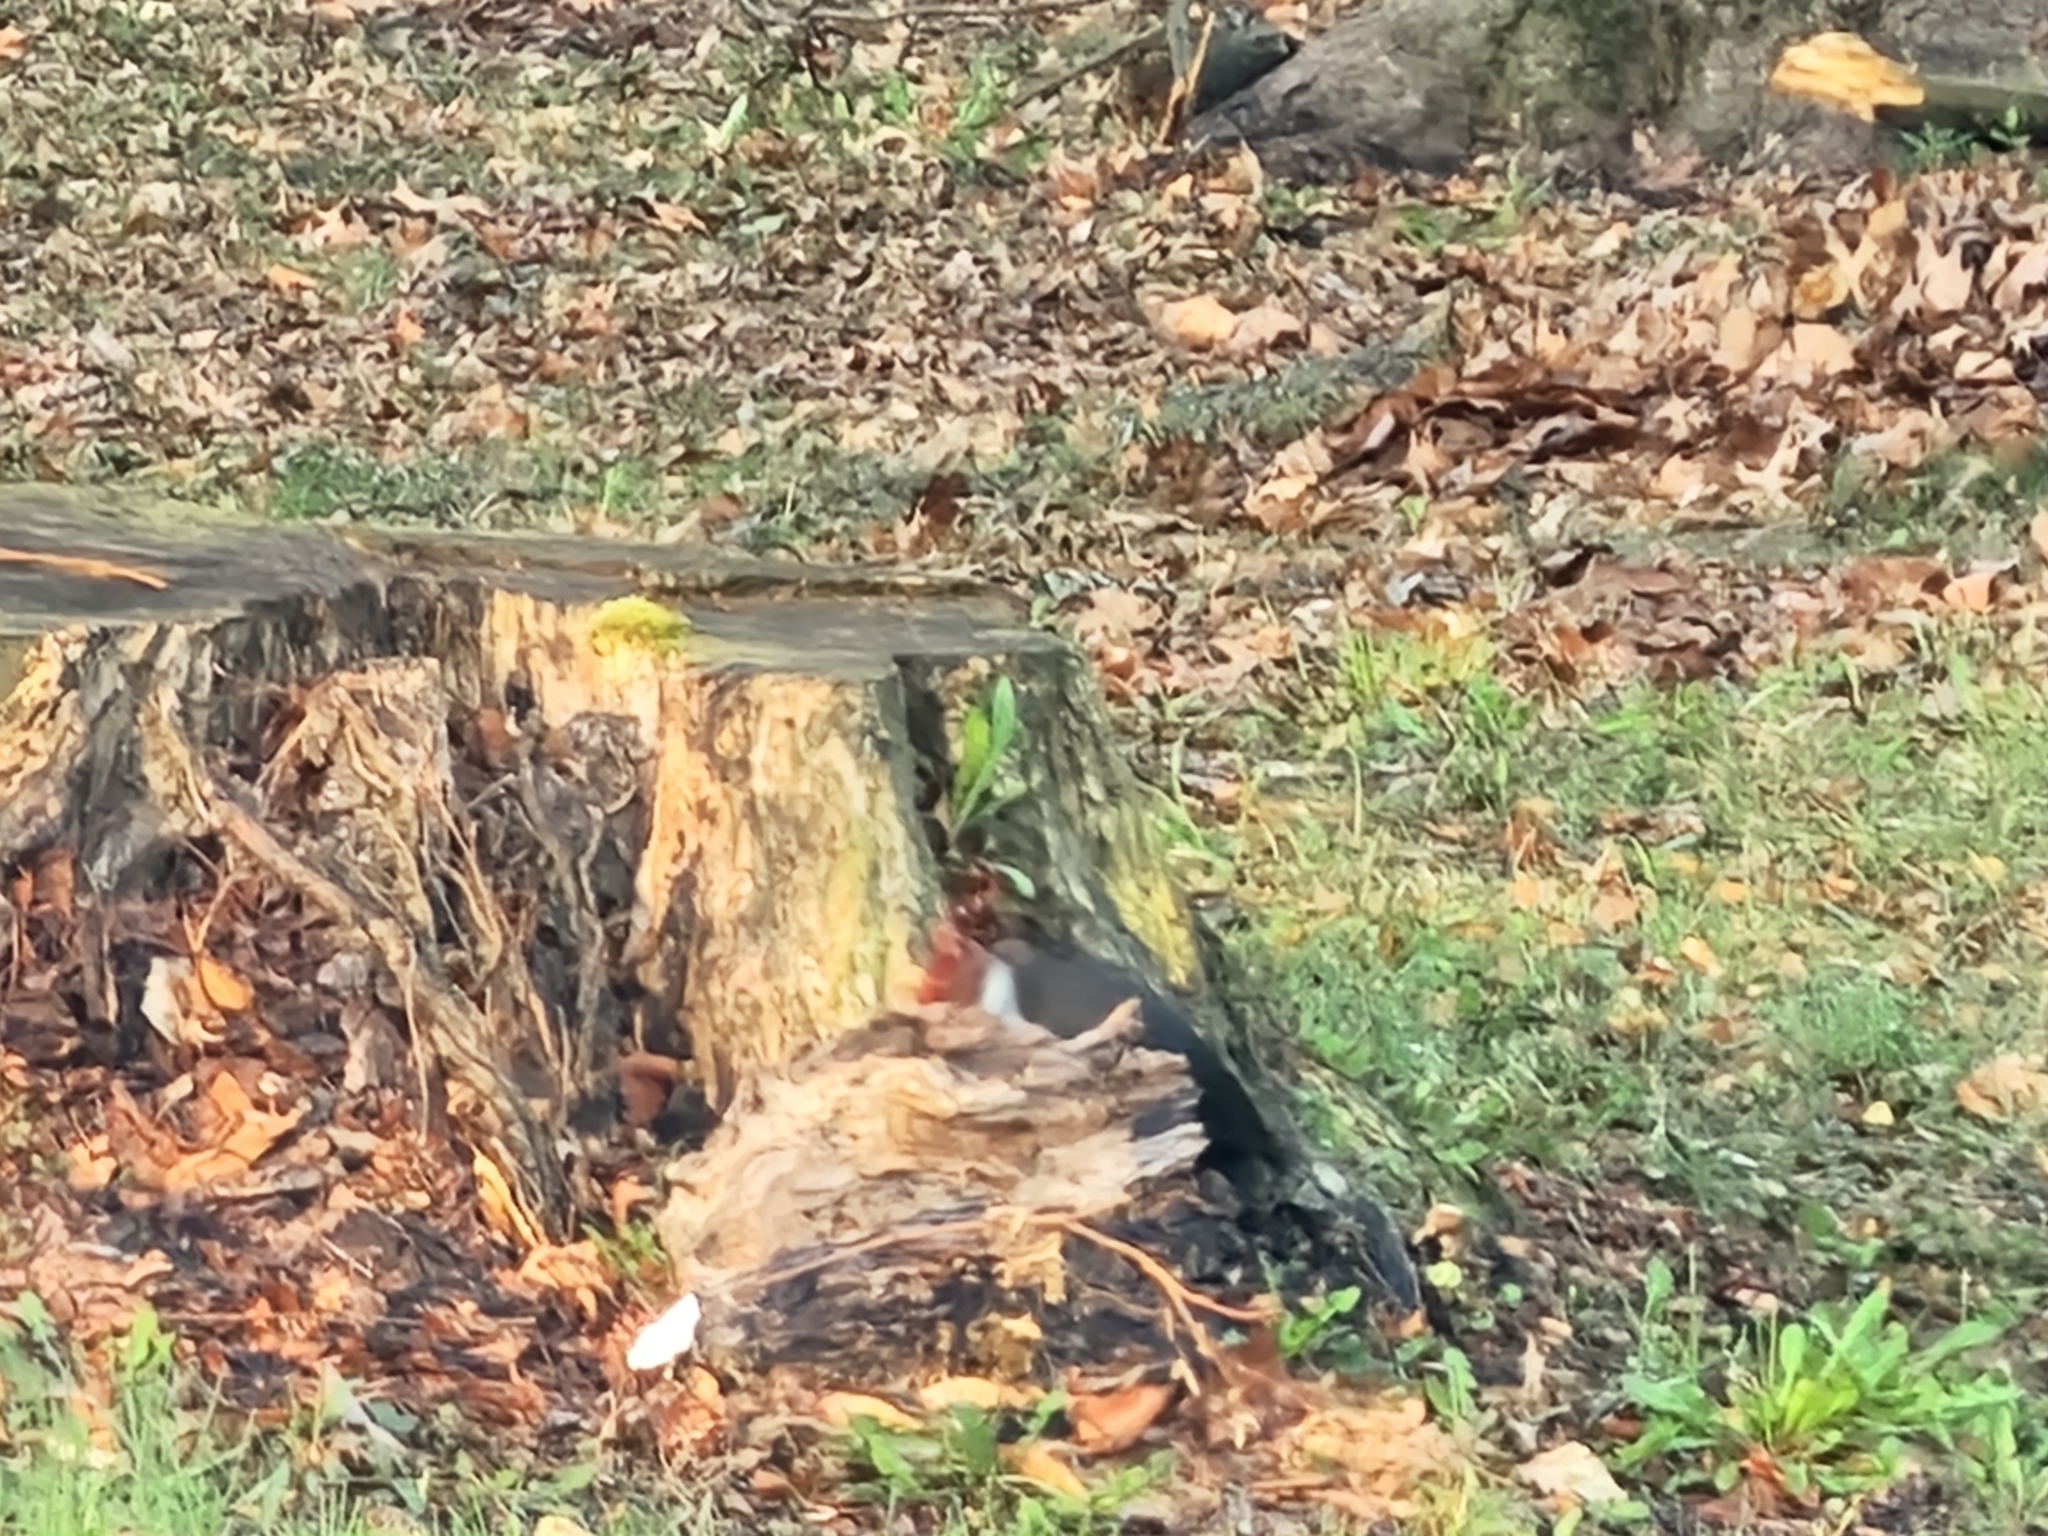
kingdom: Animalia
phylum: Chordata
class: Aves
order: Piciformes
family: Picidae
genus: Dryocopus
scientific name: Dryocopus pileatus
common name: Pileated woodpecker
